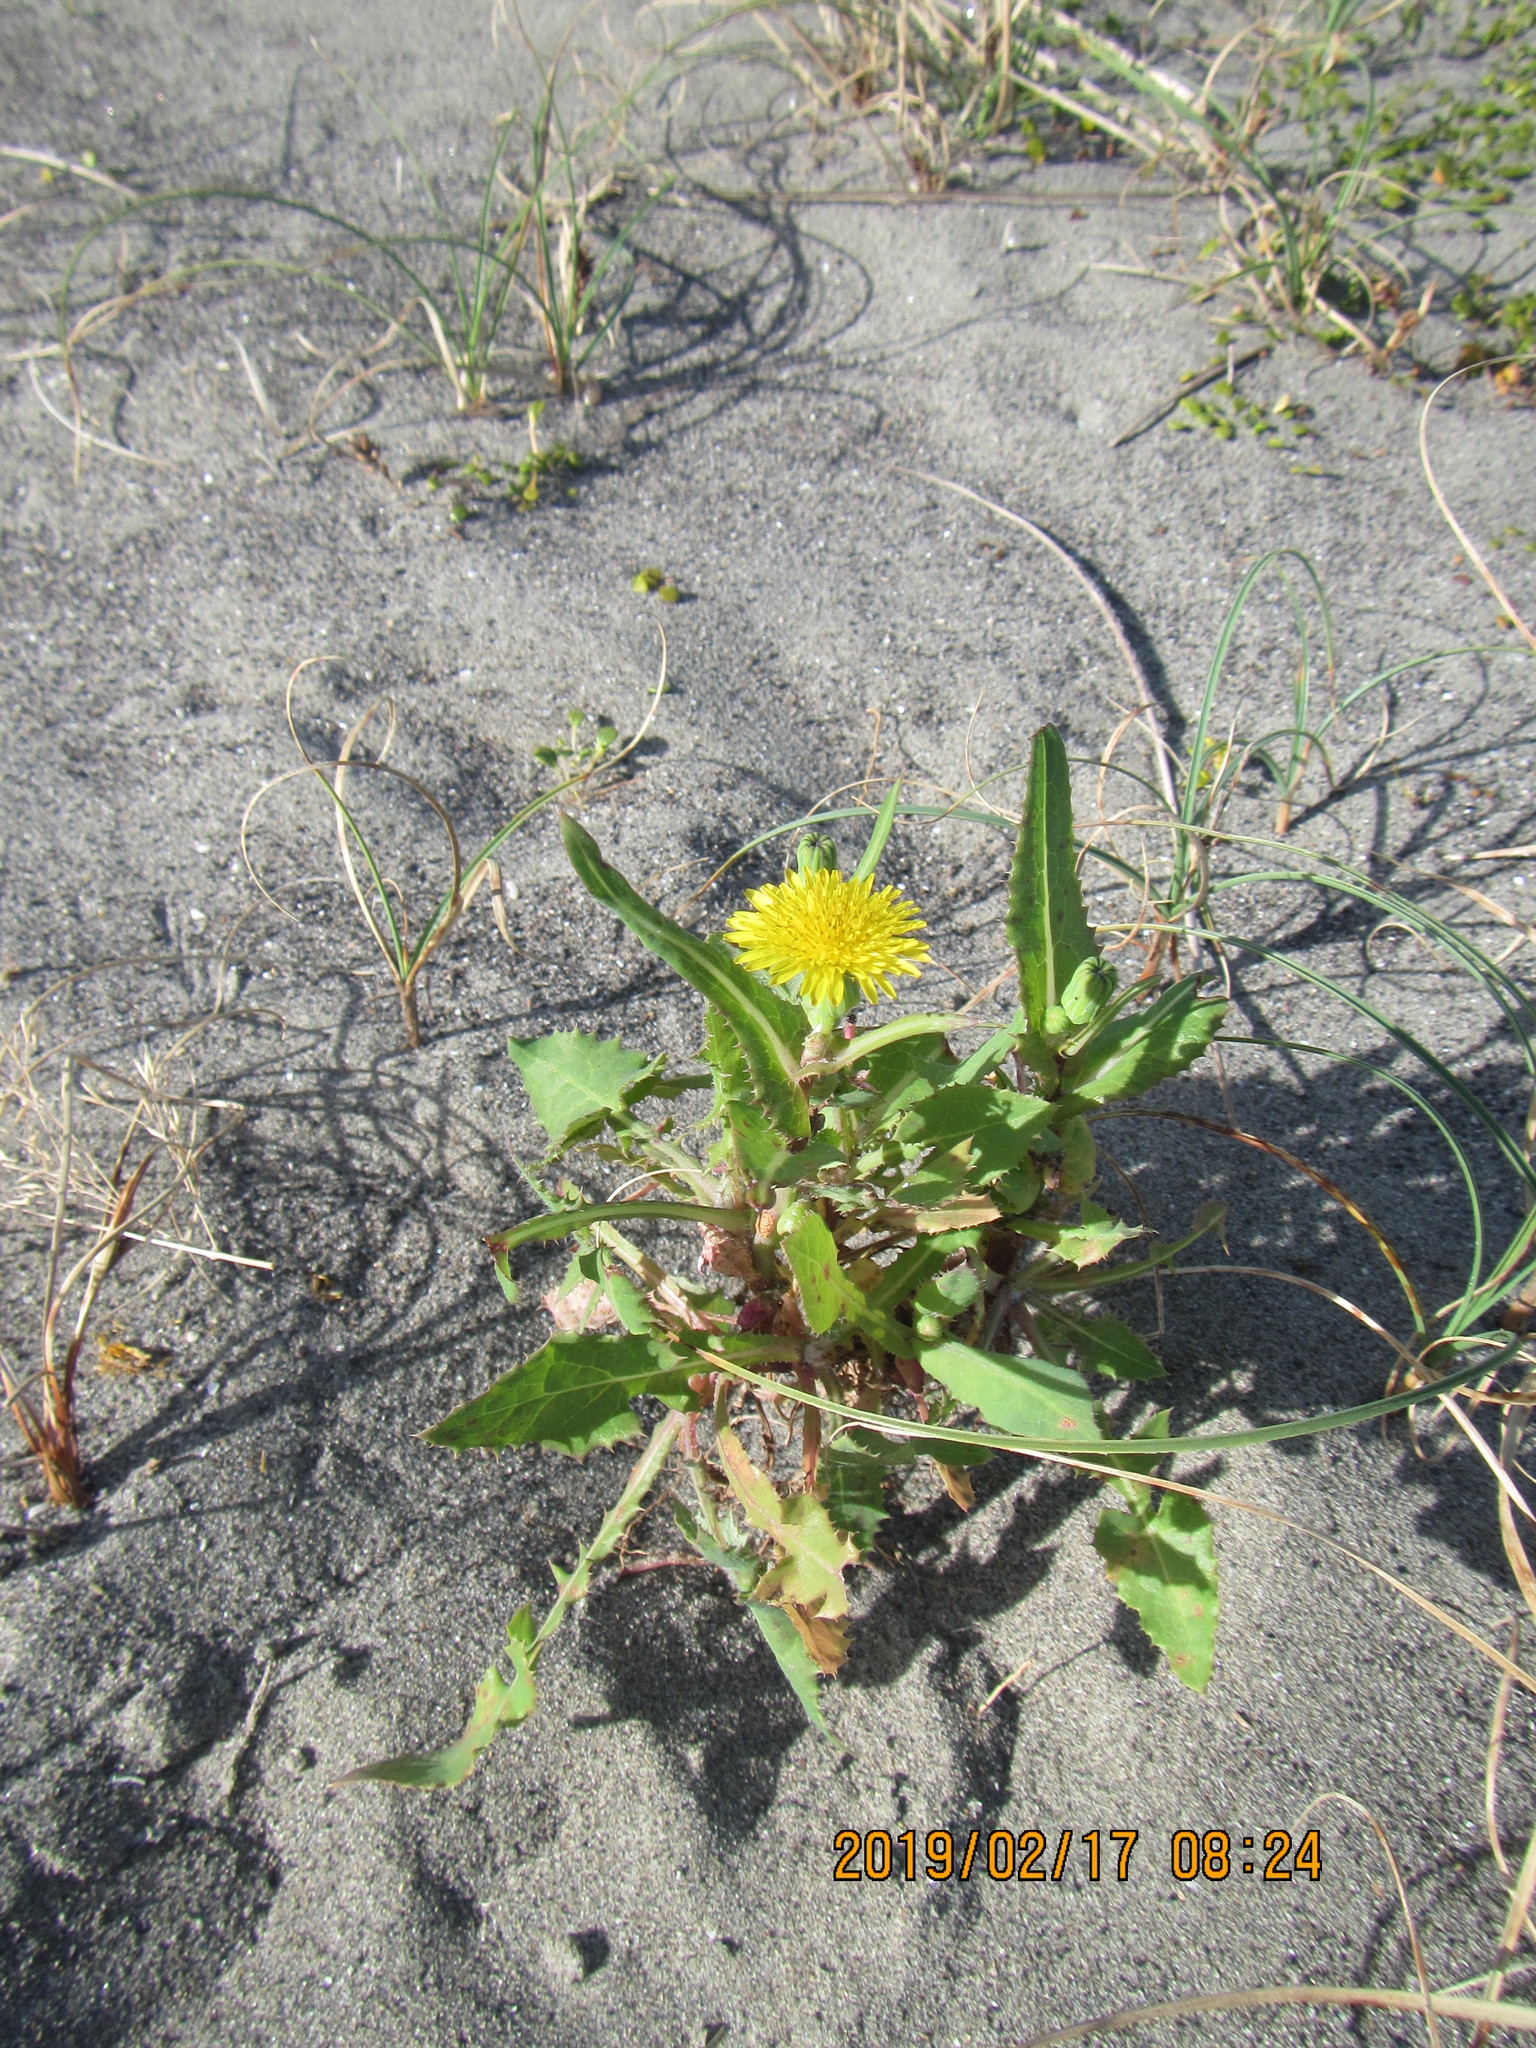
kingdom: Plantae
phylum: Tracheophyta
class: Magnoliopsida
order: Asterales
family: Asteraceae
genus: Sonchus
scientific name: Sonchus oleraceus
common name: Common sowthistle
